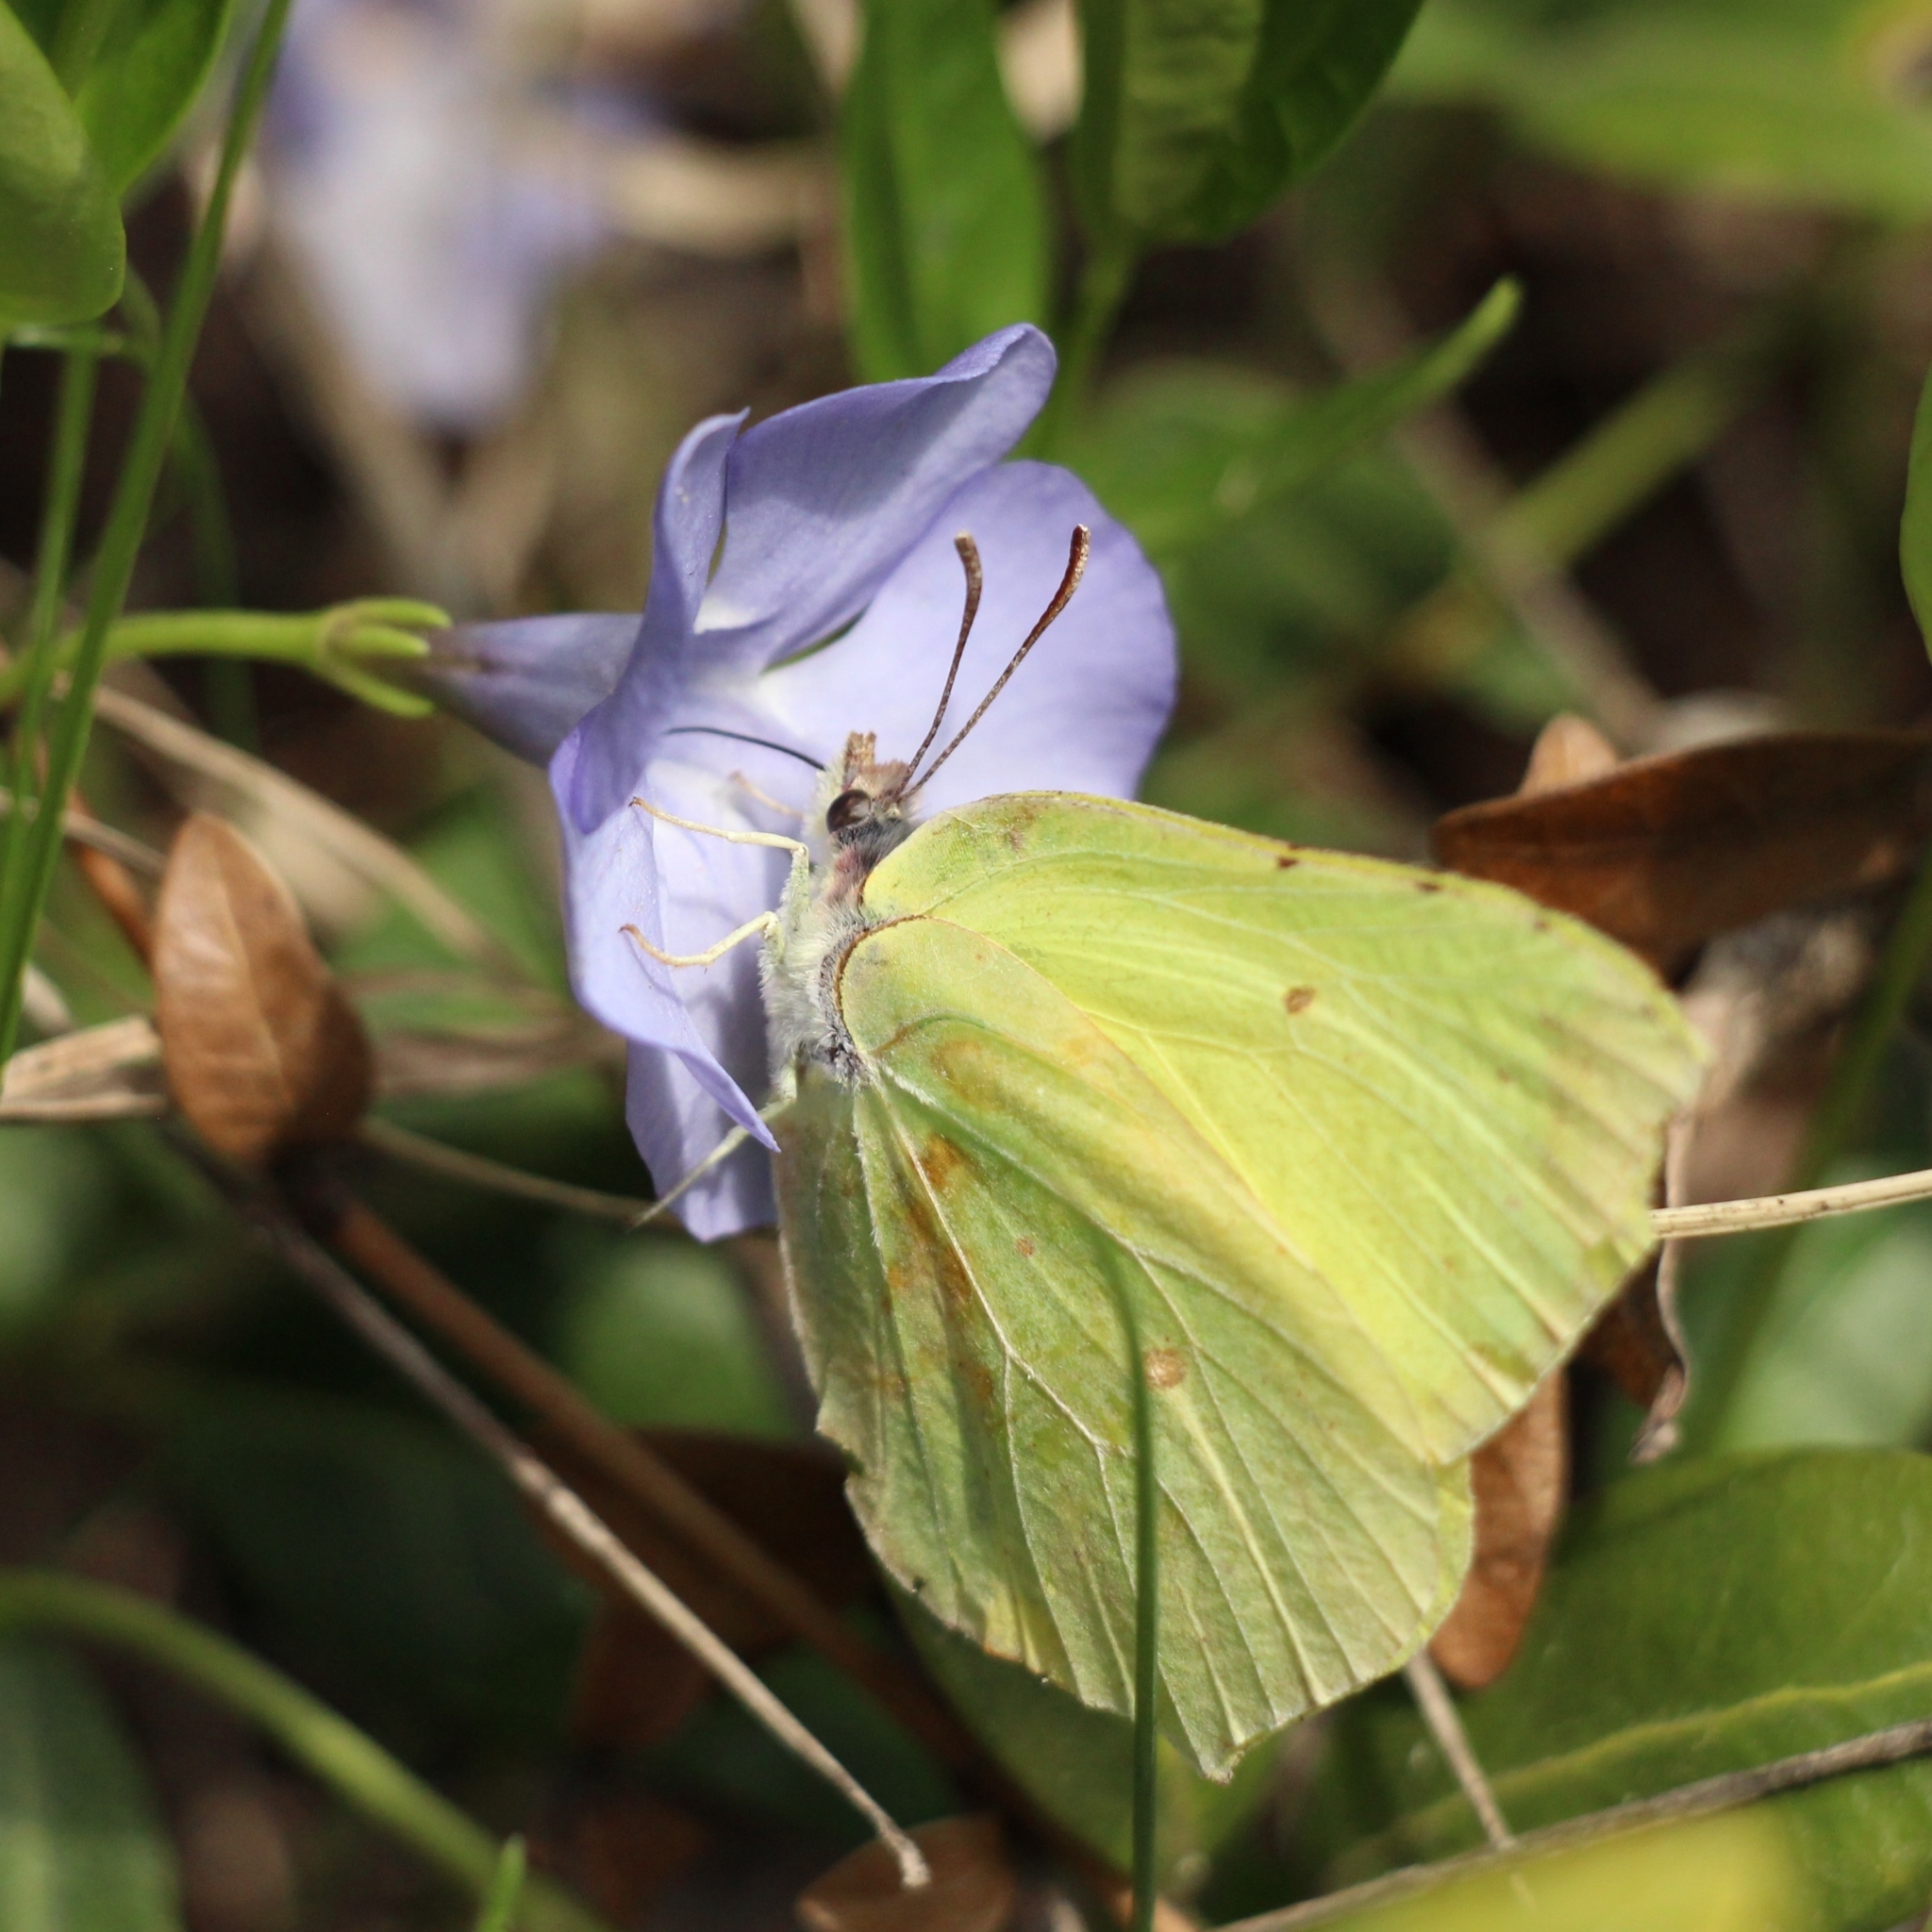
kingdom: Animalia
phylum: Arthropoda
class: Insecta
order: Lepidoptera
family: Pieridae
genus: Gonepteryx
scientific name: Gonepteryx rhamni
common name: Brimstone
